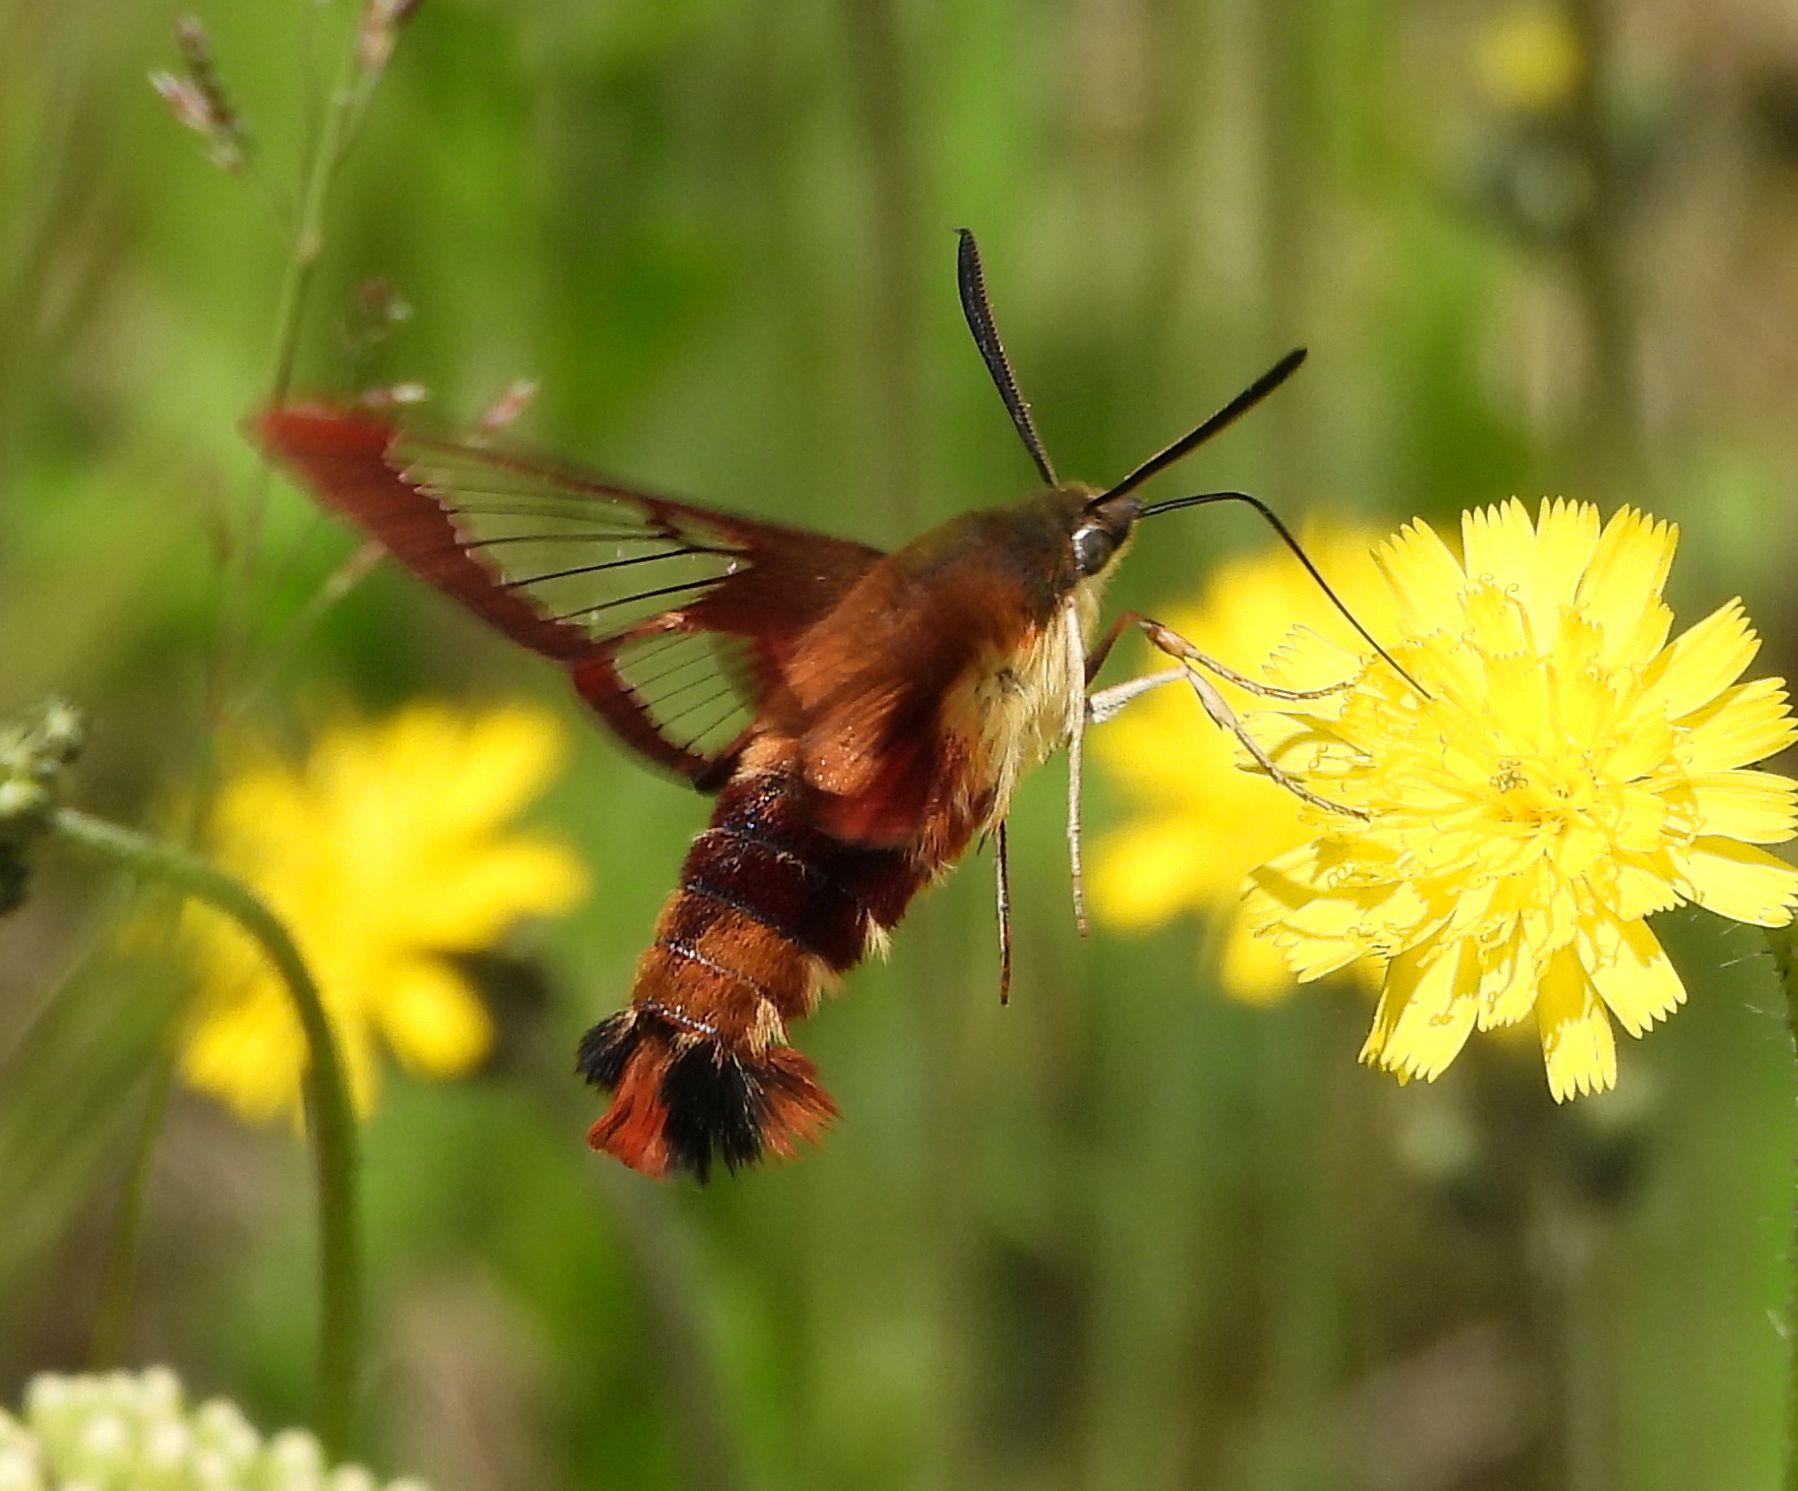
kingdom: Animalia
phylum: Arthropoda
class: Insecta
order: Lepidoptera
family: Sphingidae
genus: Hemaris
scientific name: Hemaris thysbe
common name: Common clear-wing
